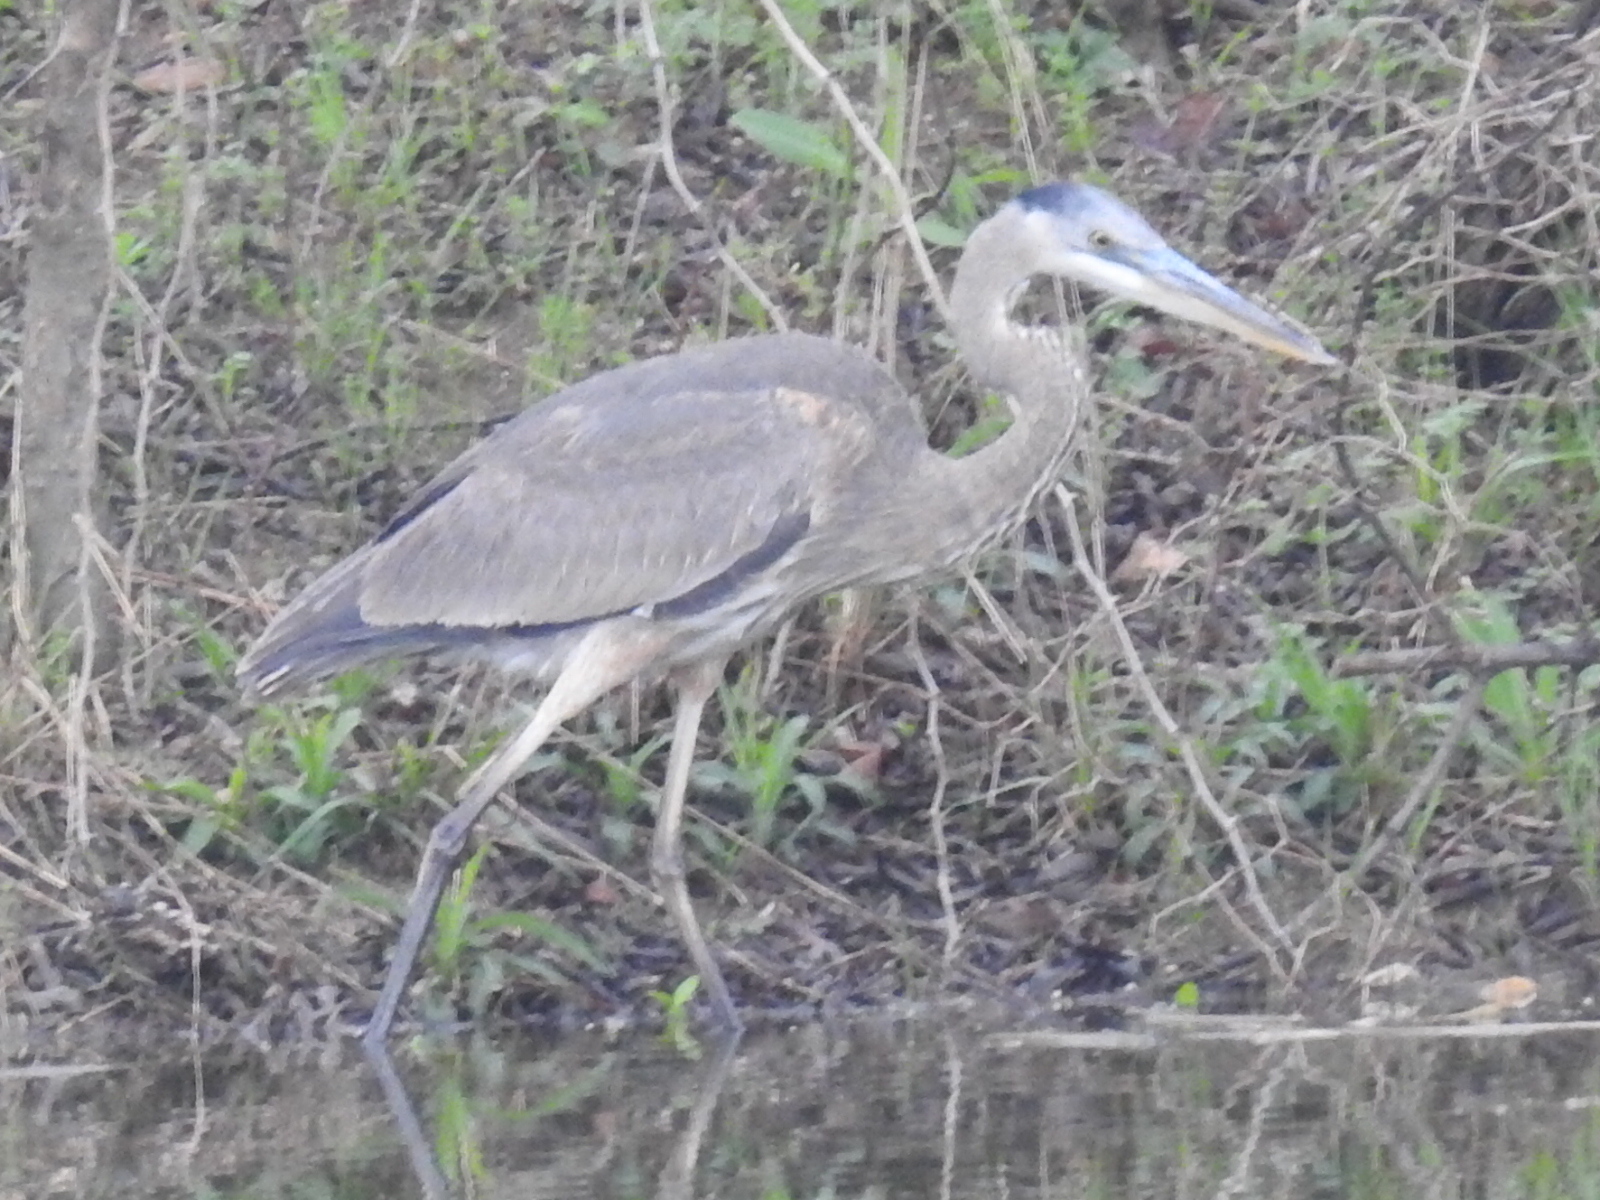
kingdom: Animalia
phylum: Chordata
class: Aves
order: Pelecaniformes
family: Ardeidae
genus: Ardea
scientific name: Ardea herodias
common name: Great blue heron
